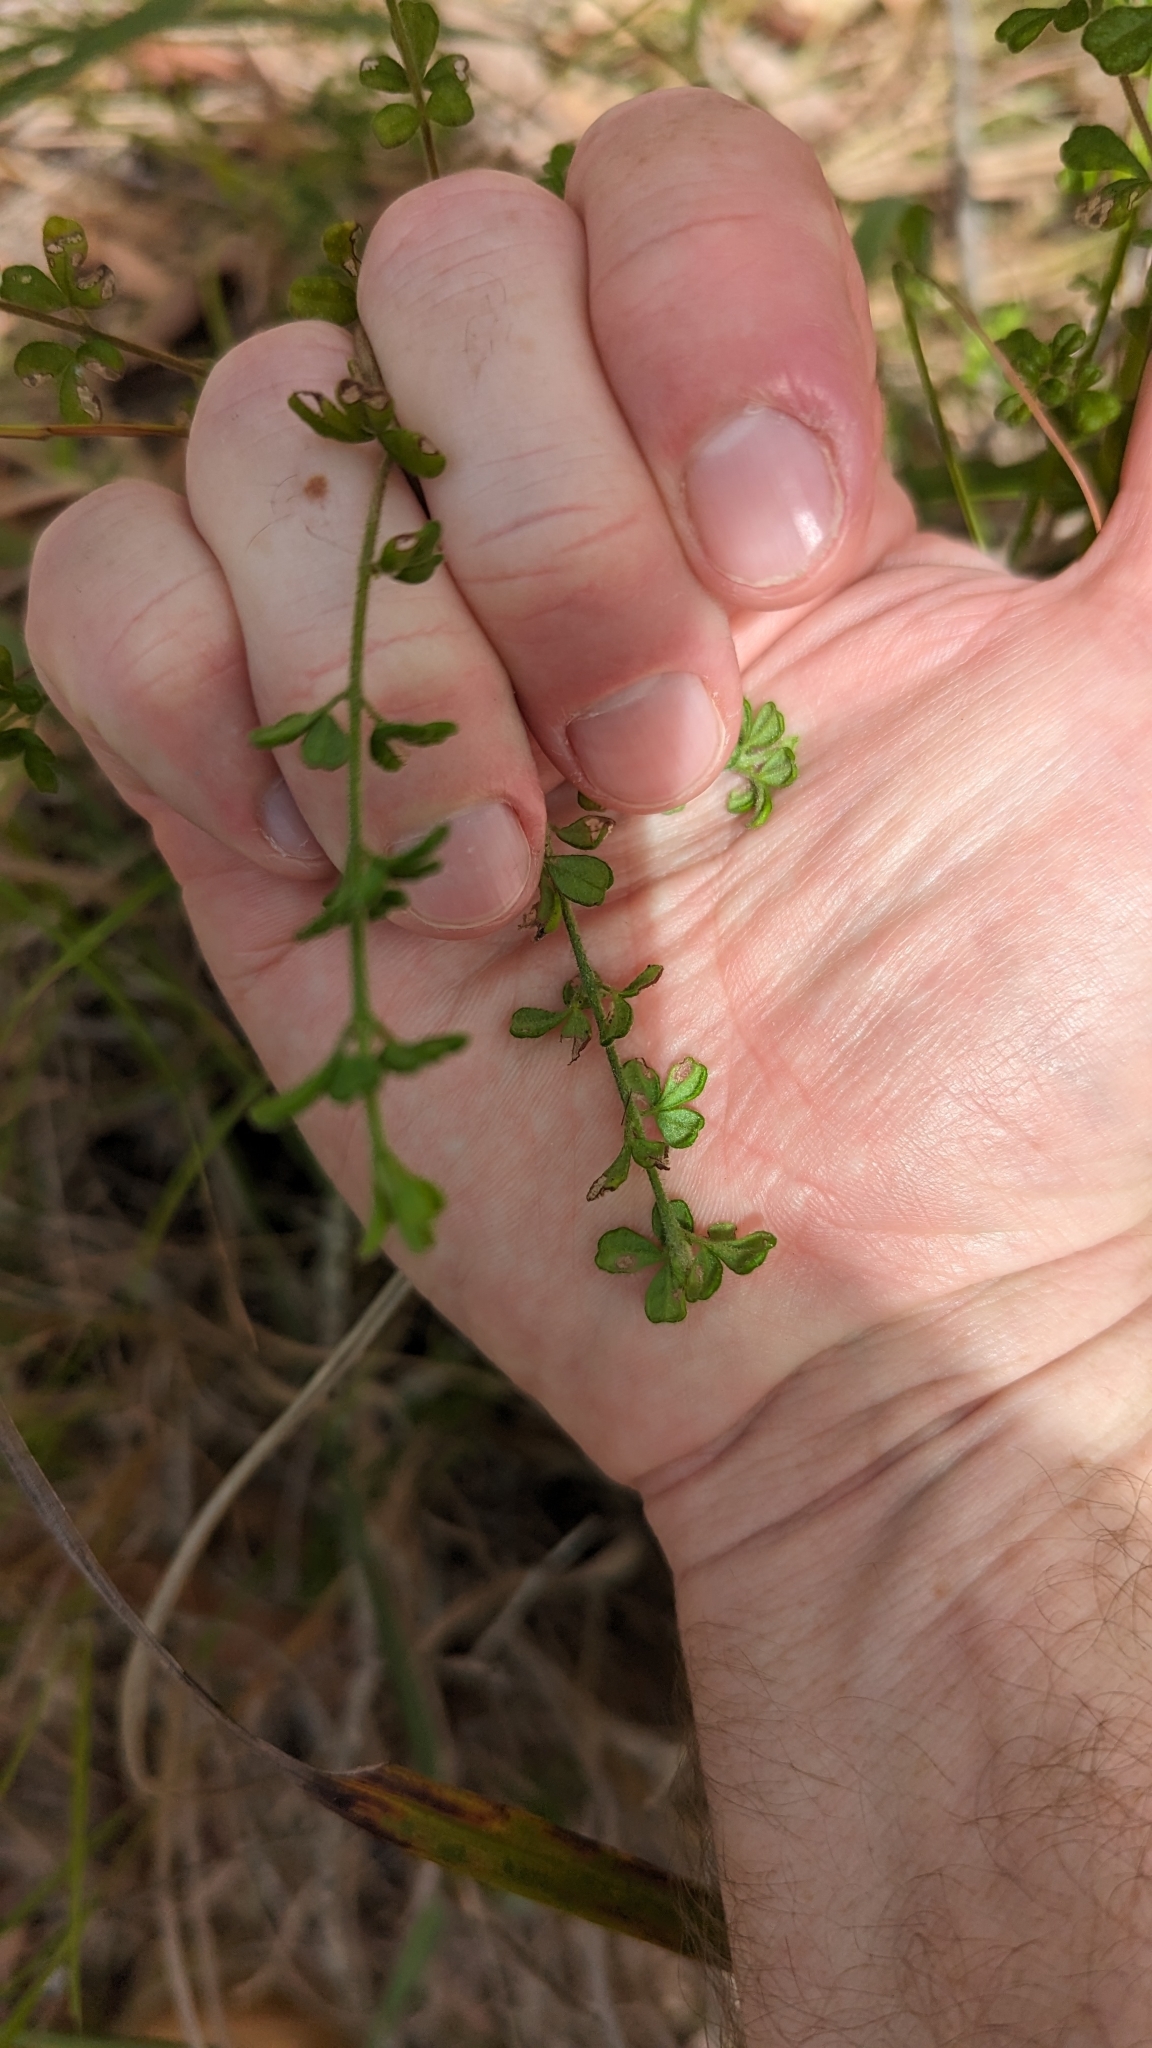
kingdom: Plantae
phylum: Tracheophyta
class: Magnoliopsida
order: Sapindales
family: Rutaceae
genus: Zieria
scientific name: Zieria minutiflora
